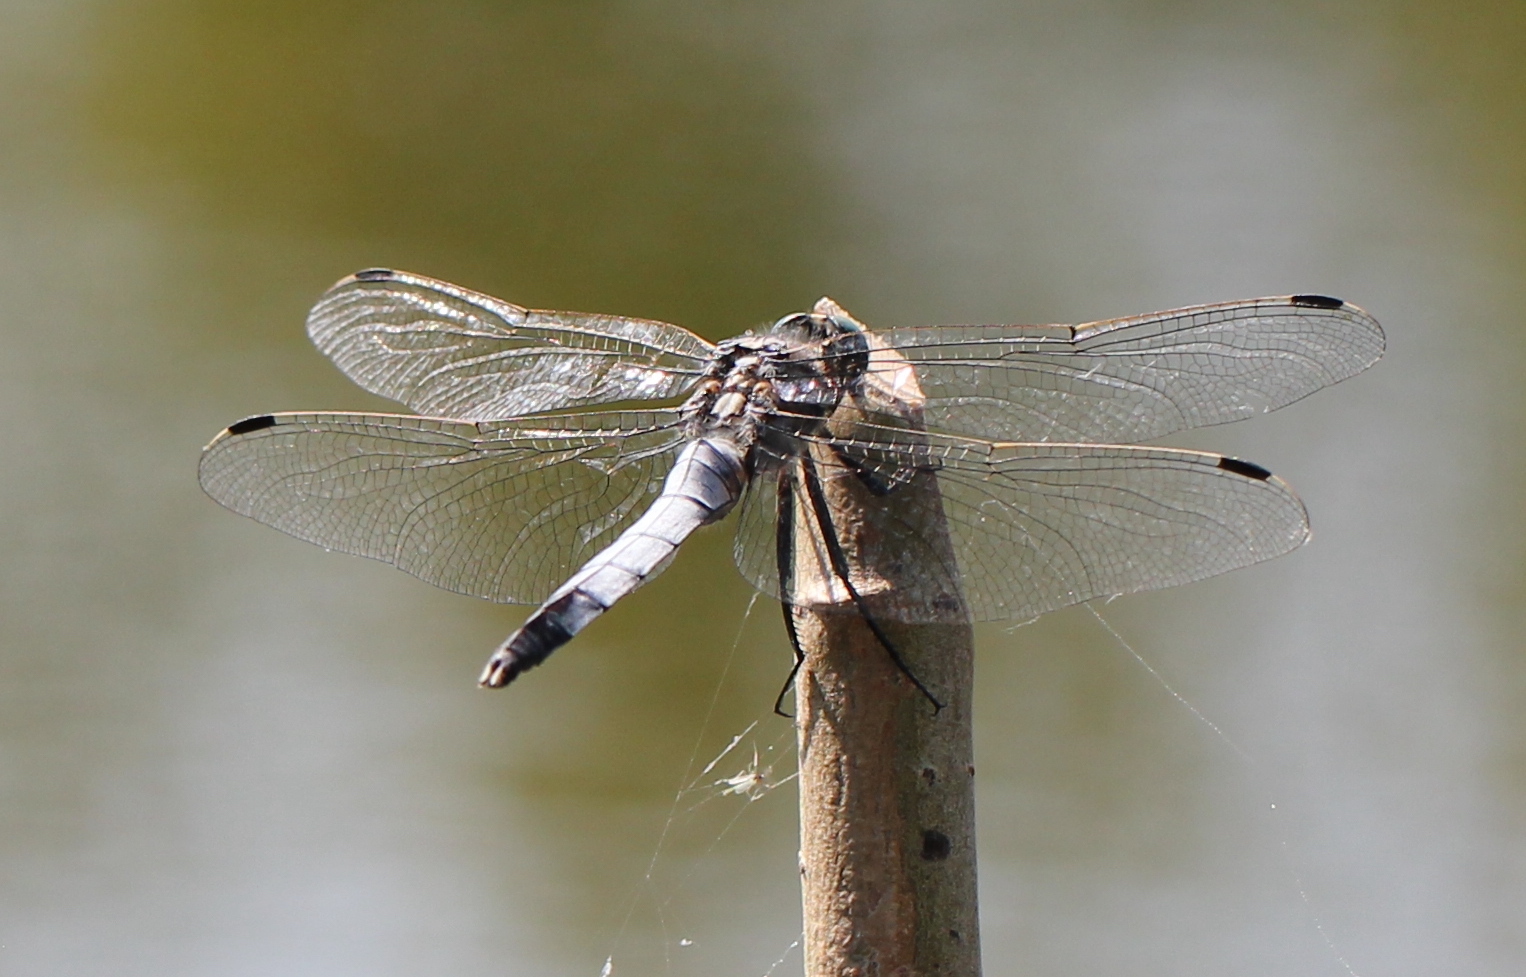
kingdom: Animalia
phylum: Arthropoda
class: Insecta
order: Odonata
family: Libellulidae
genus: Orthetrum
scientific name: Orthetrum albistylum
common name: White-tailed skimmer
